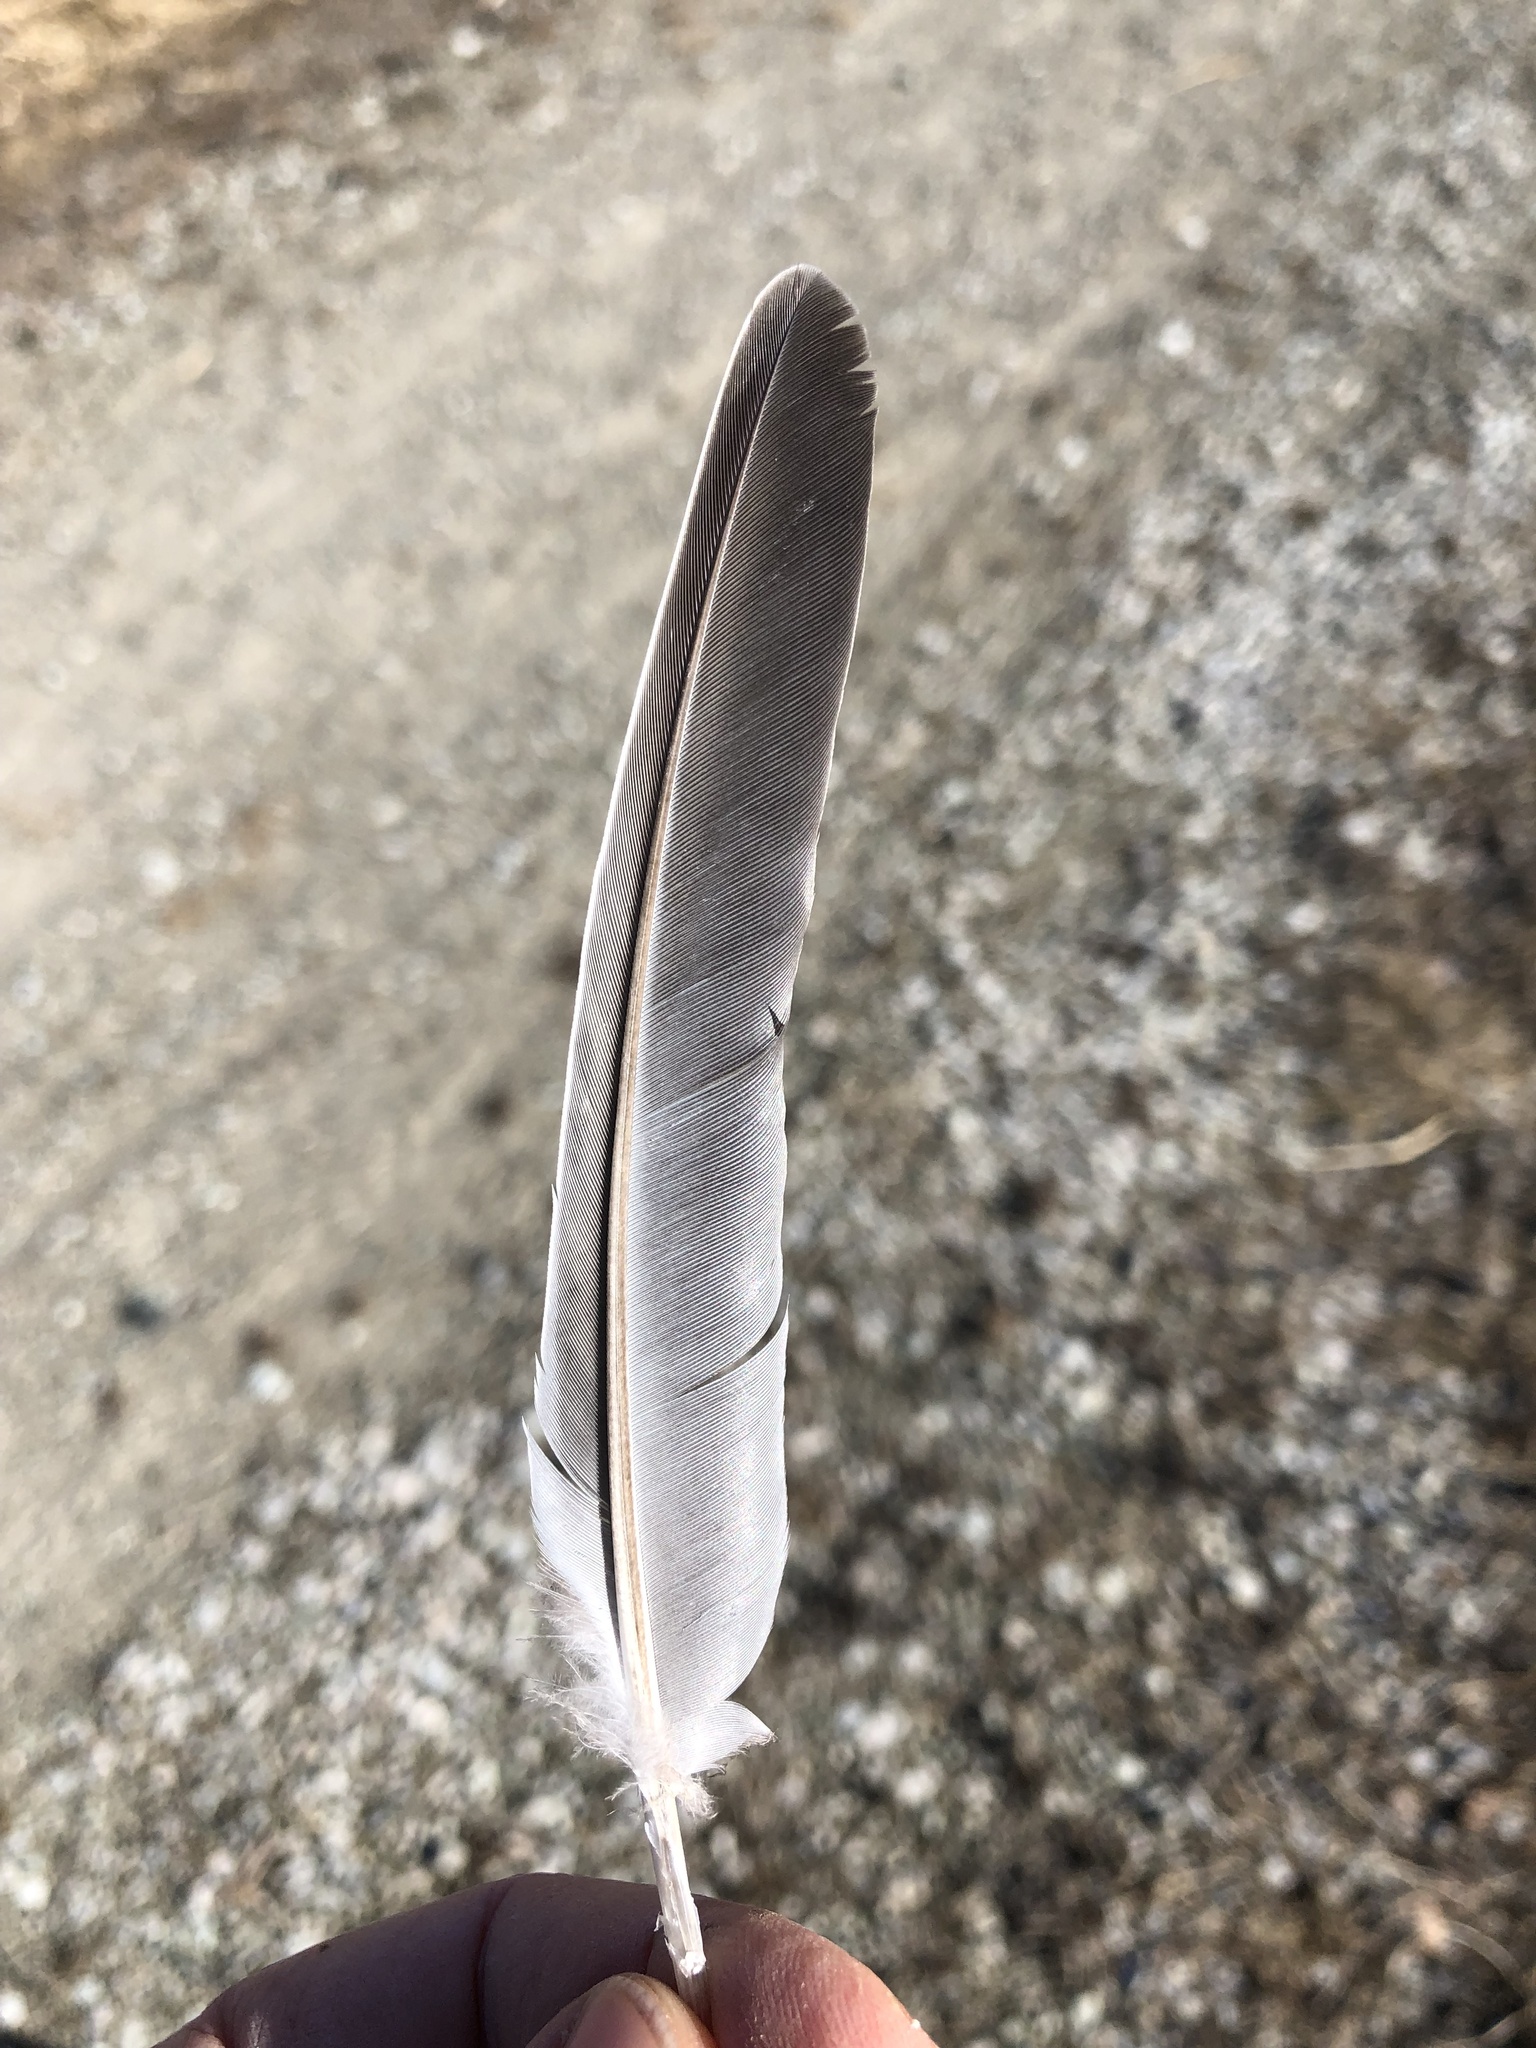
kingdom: Animalia
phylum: Chordata
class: Aves
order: Columbiformes
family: Columbidae
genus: Zenaida
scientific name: Zenaida macroura
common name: Mourning dove
